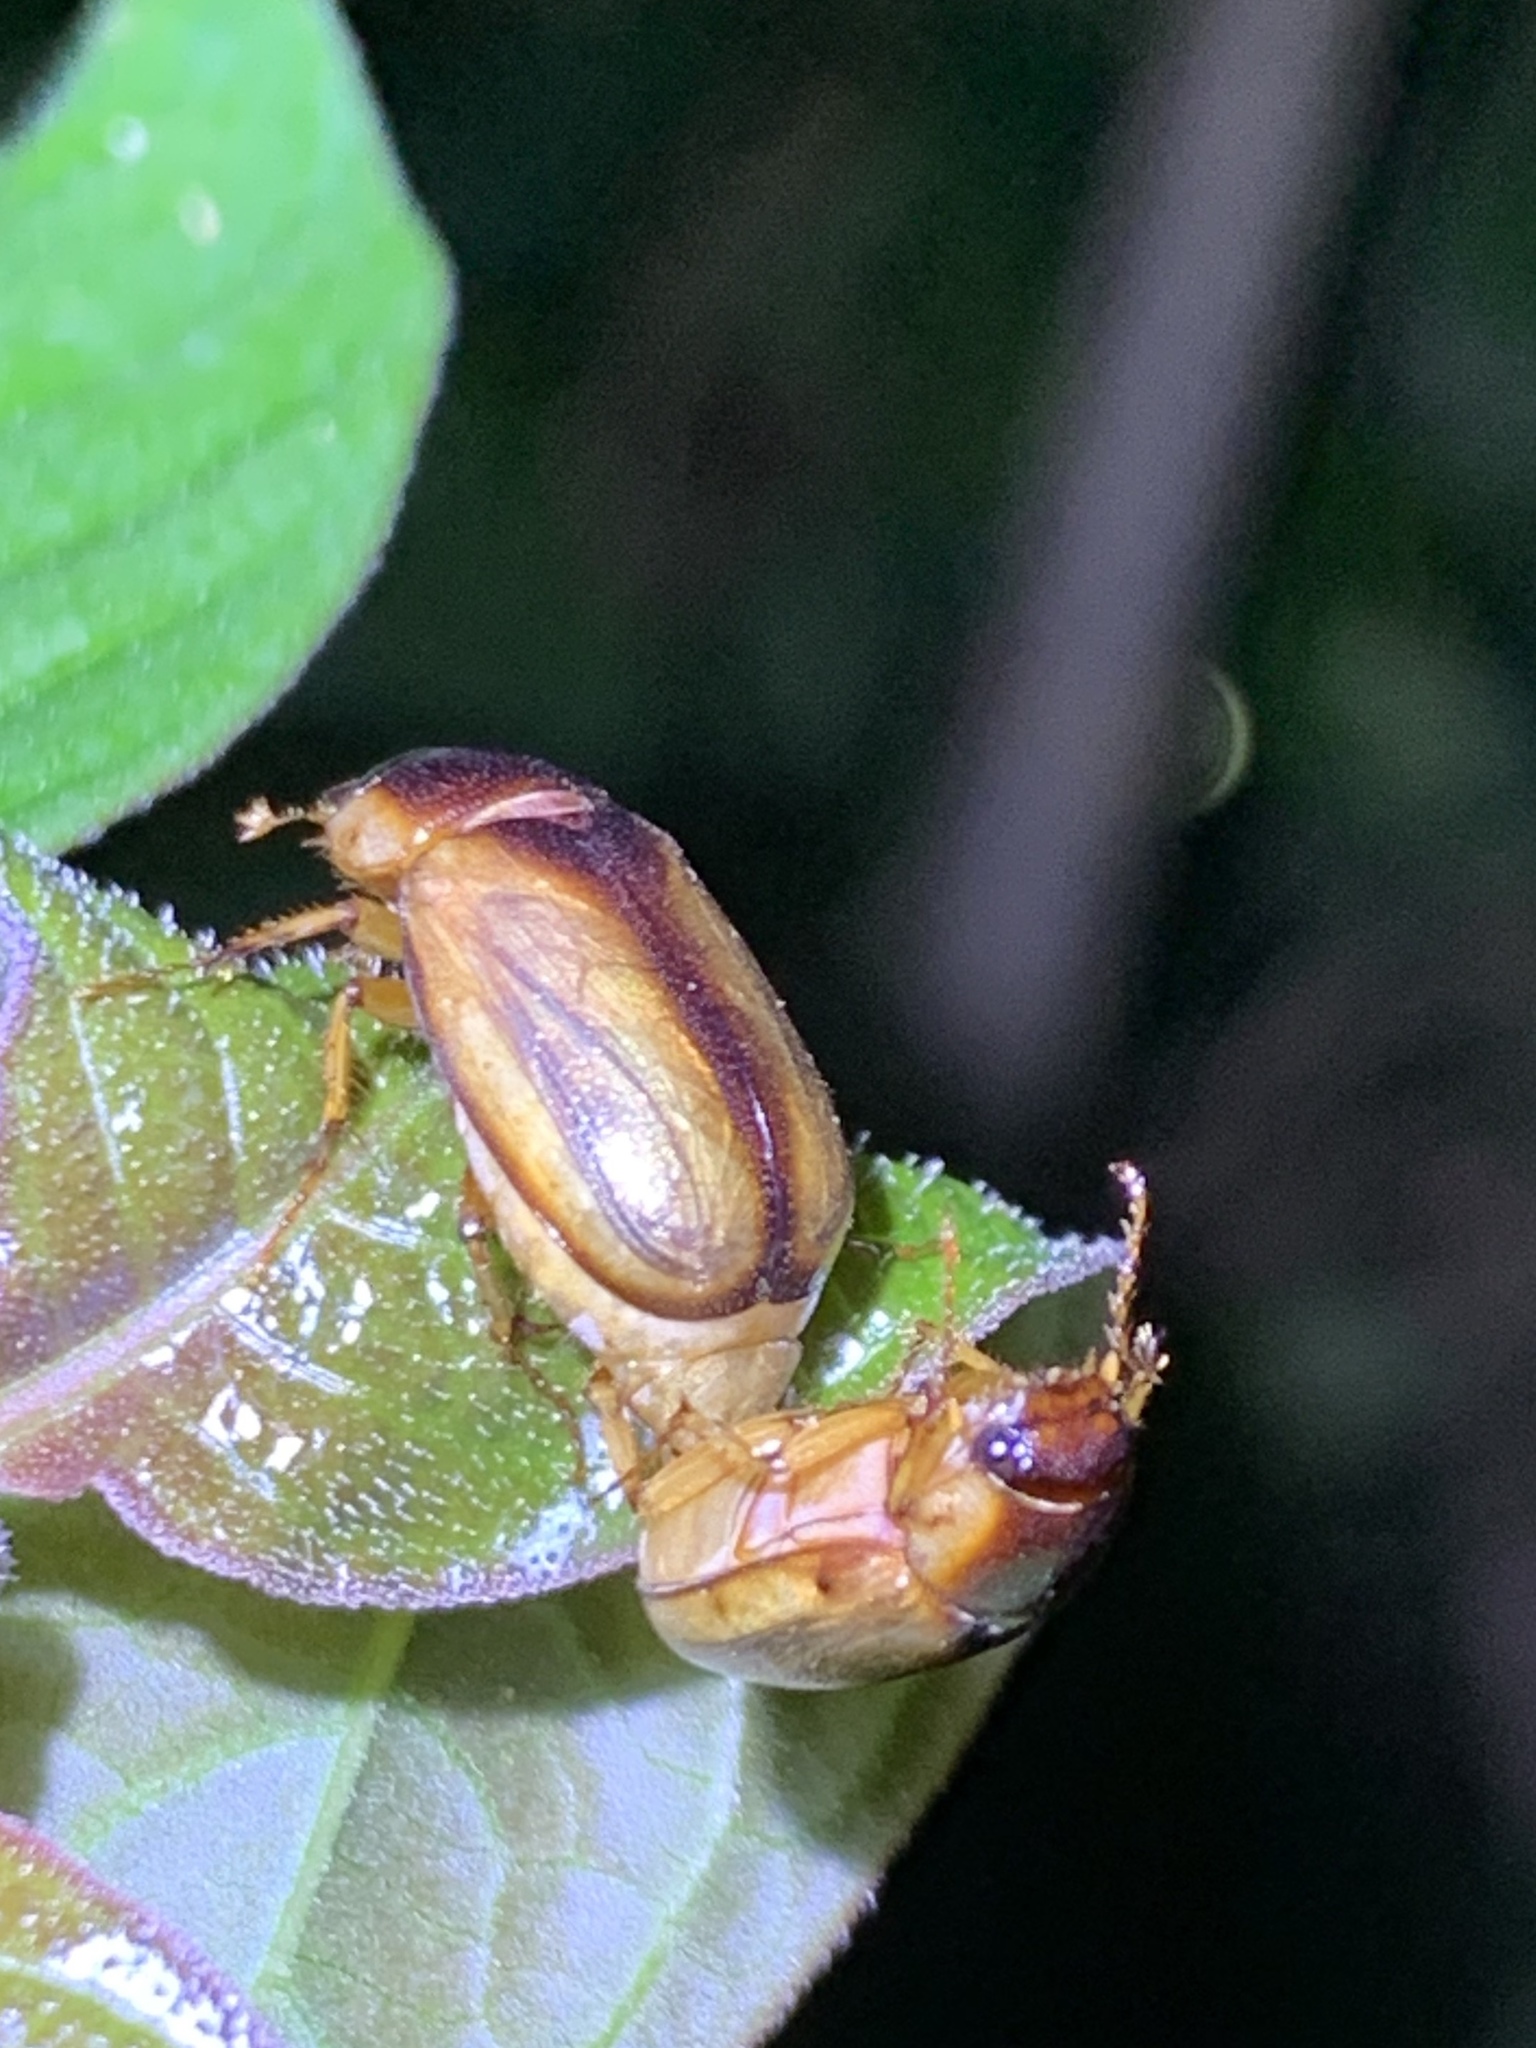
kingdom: Animalia
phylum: Arthropoda
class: Insecta
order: Coleoptera
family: Scarabaeidae
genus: Phyllophaga
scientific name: Phyllophaga bruneri
